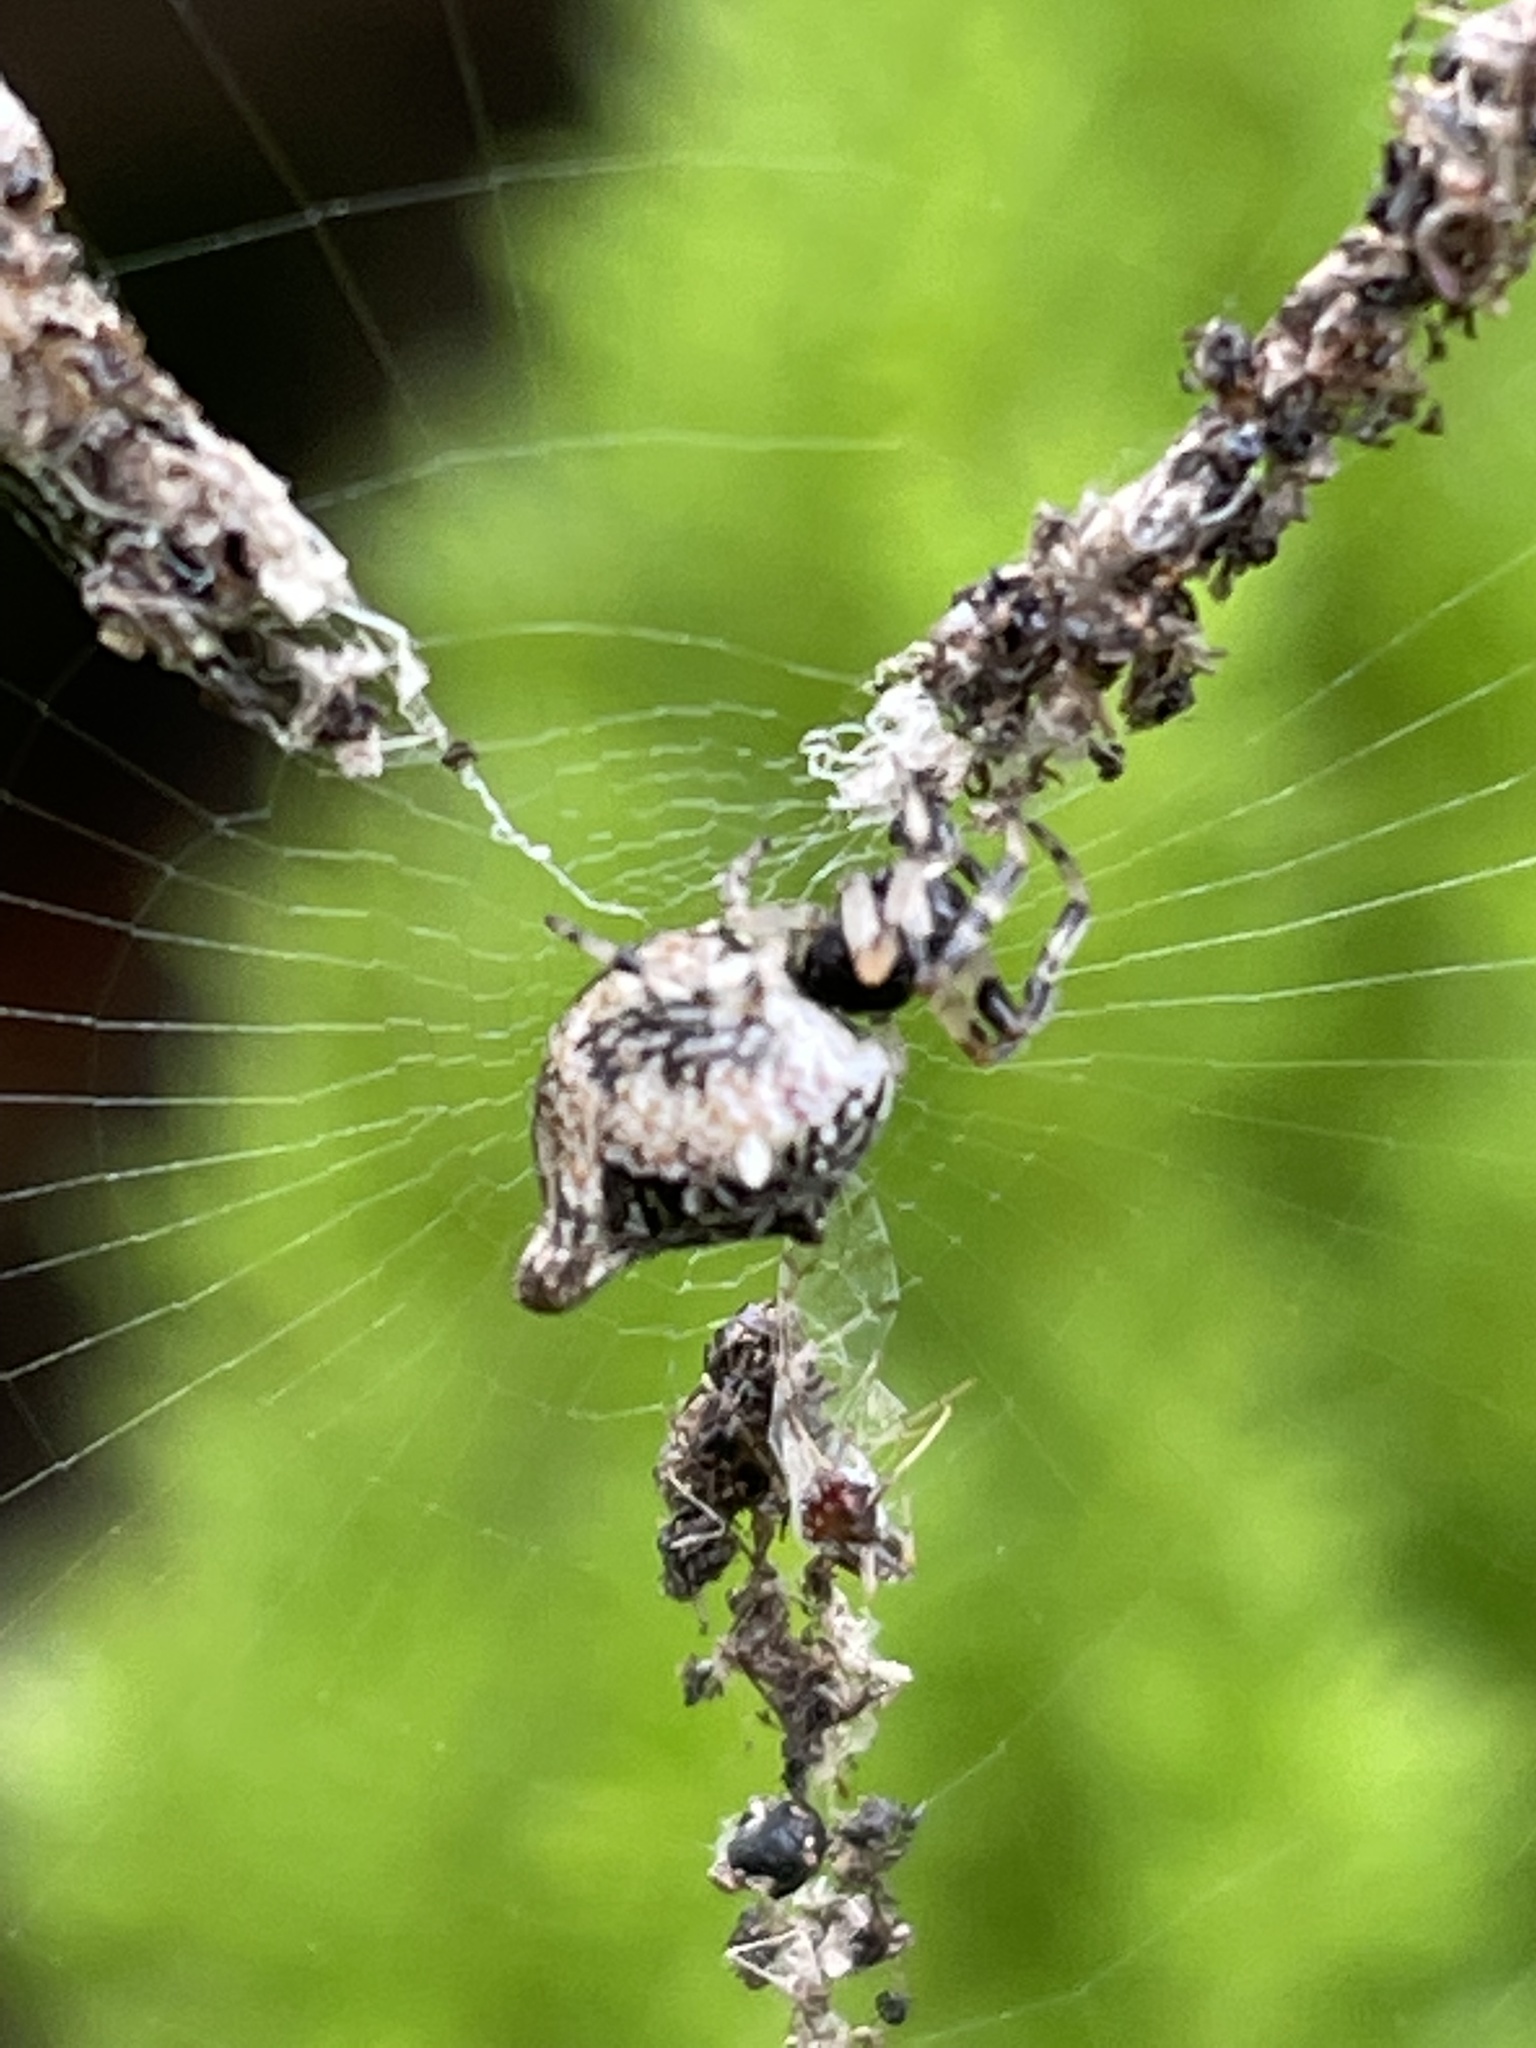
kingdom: Animalia
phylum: Arthropoda
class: Arachnida
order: Araneae
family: Araneidae
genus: Cyclosa
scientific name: Cyclosa turbinata
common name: Orb weavers
